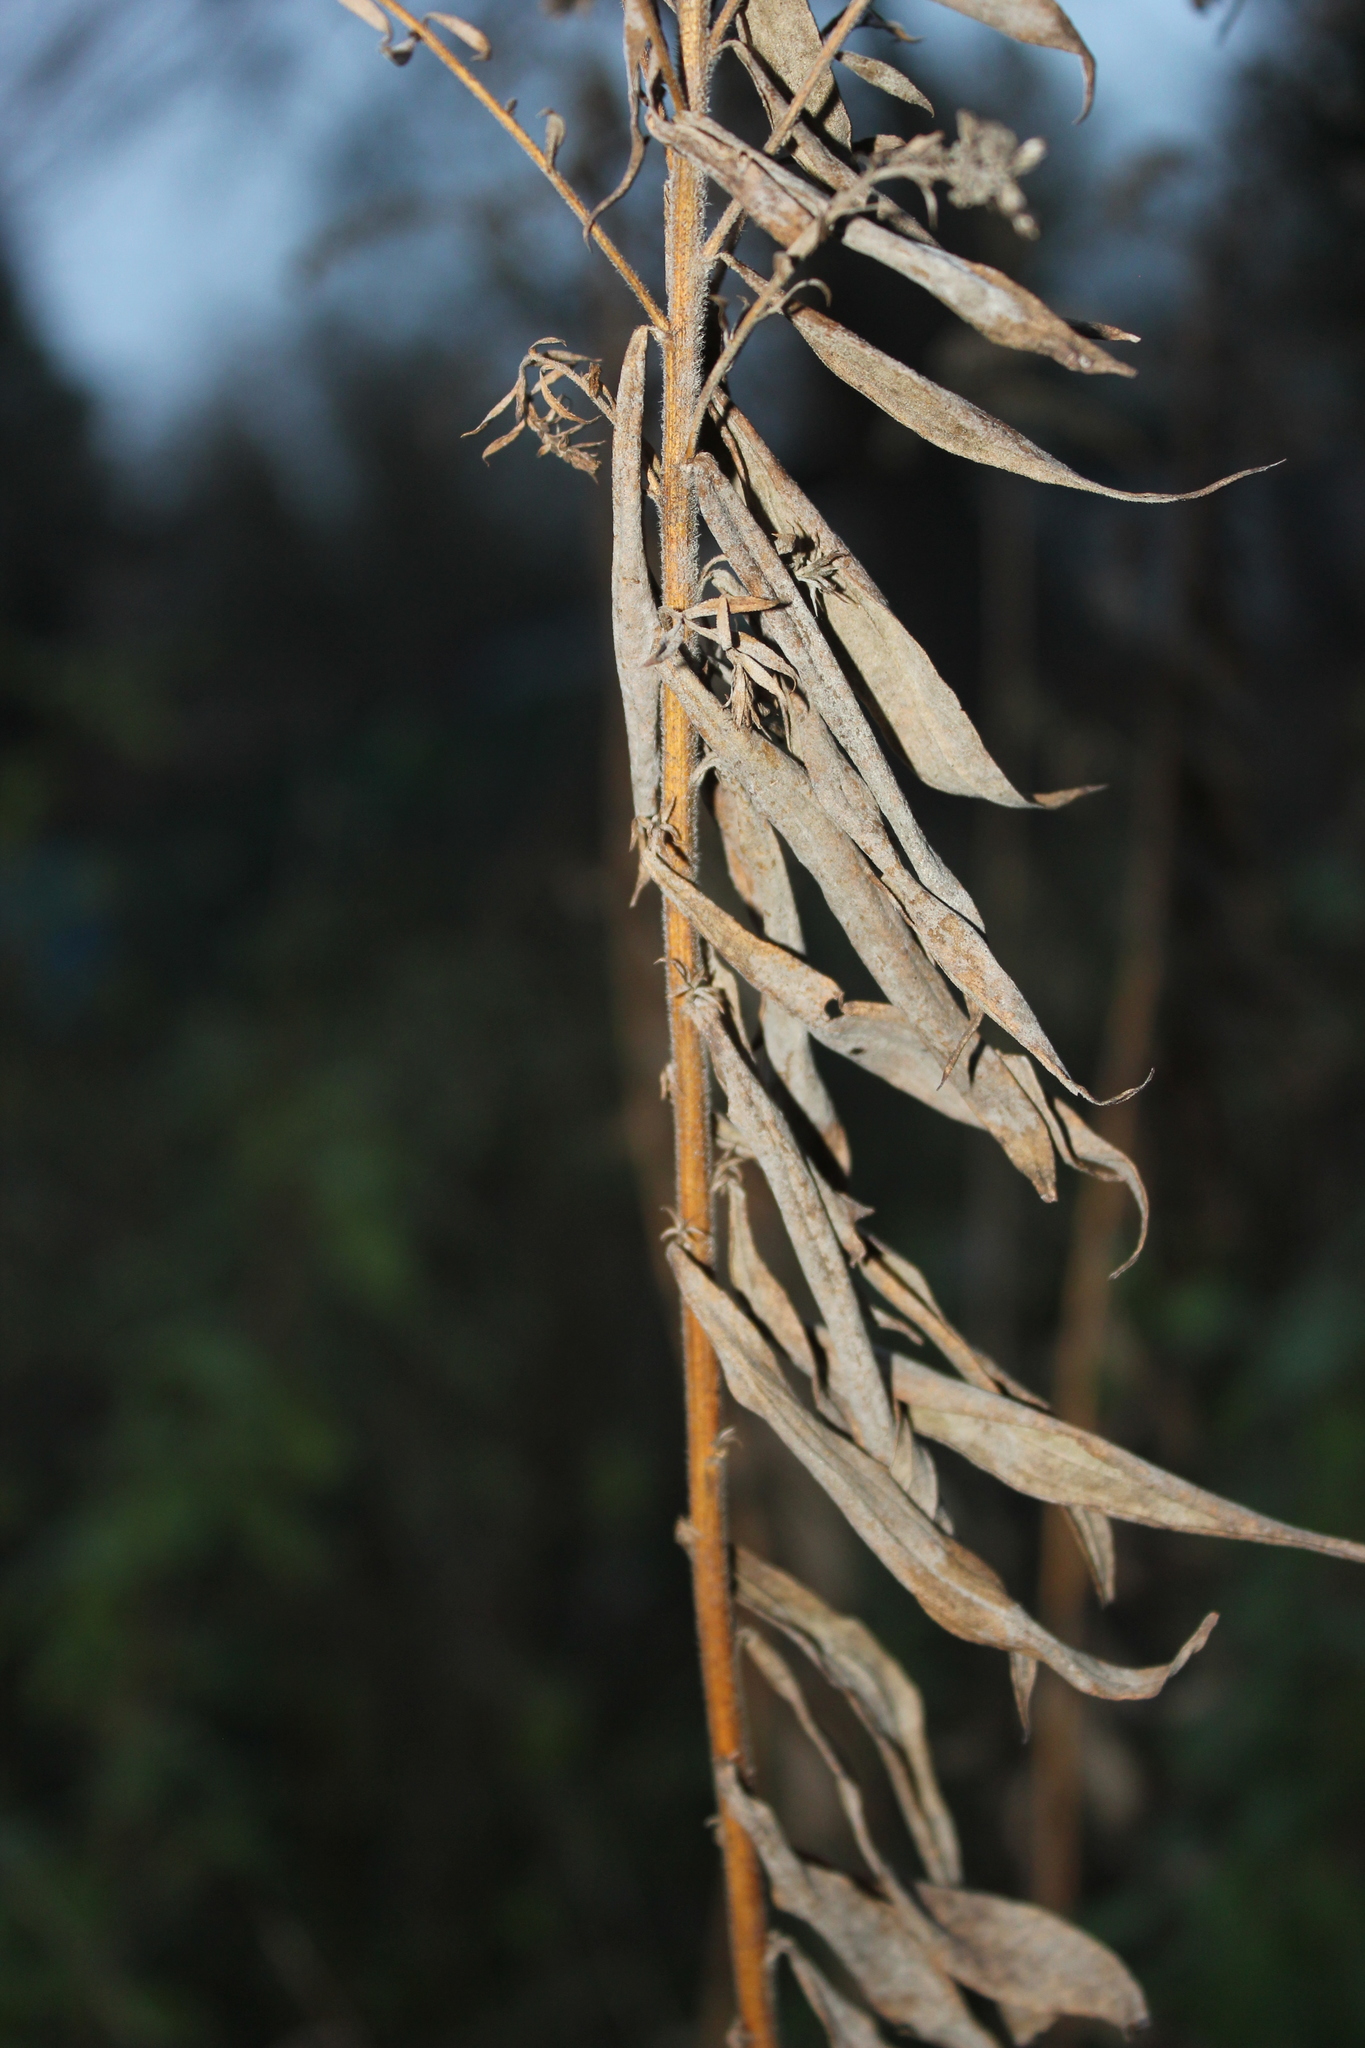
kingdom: Plantae
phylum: Tracheophyta
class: Magnoliopsida
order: Asterales
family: Asteraceae
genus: Solidago
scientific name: Solidago canadensis
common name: Canada goldenrod
